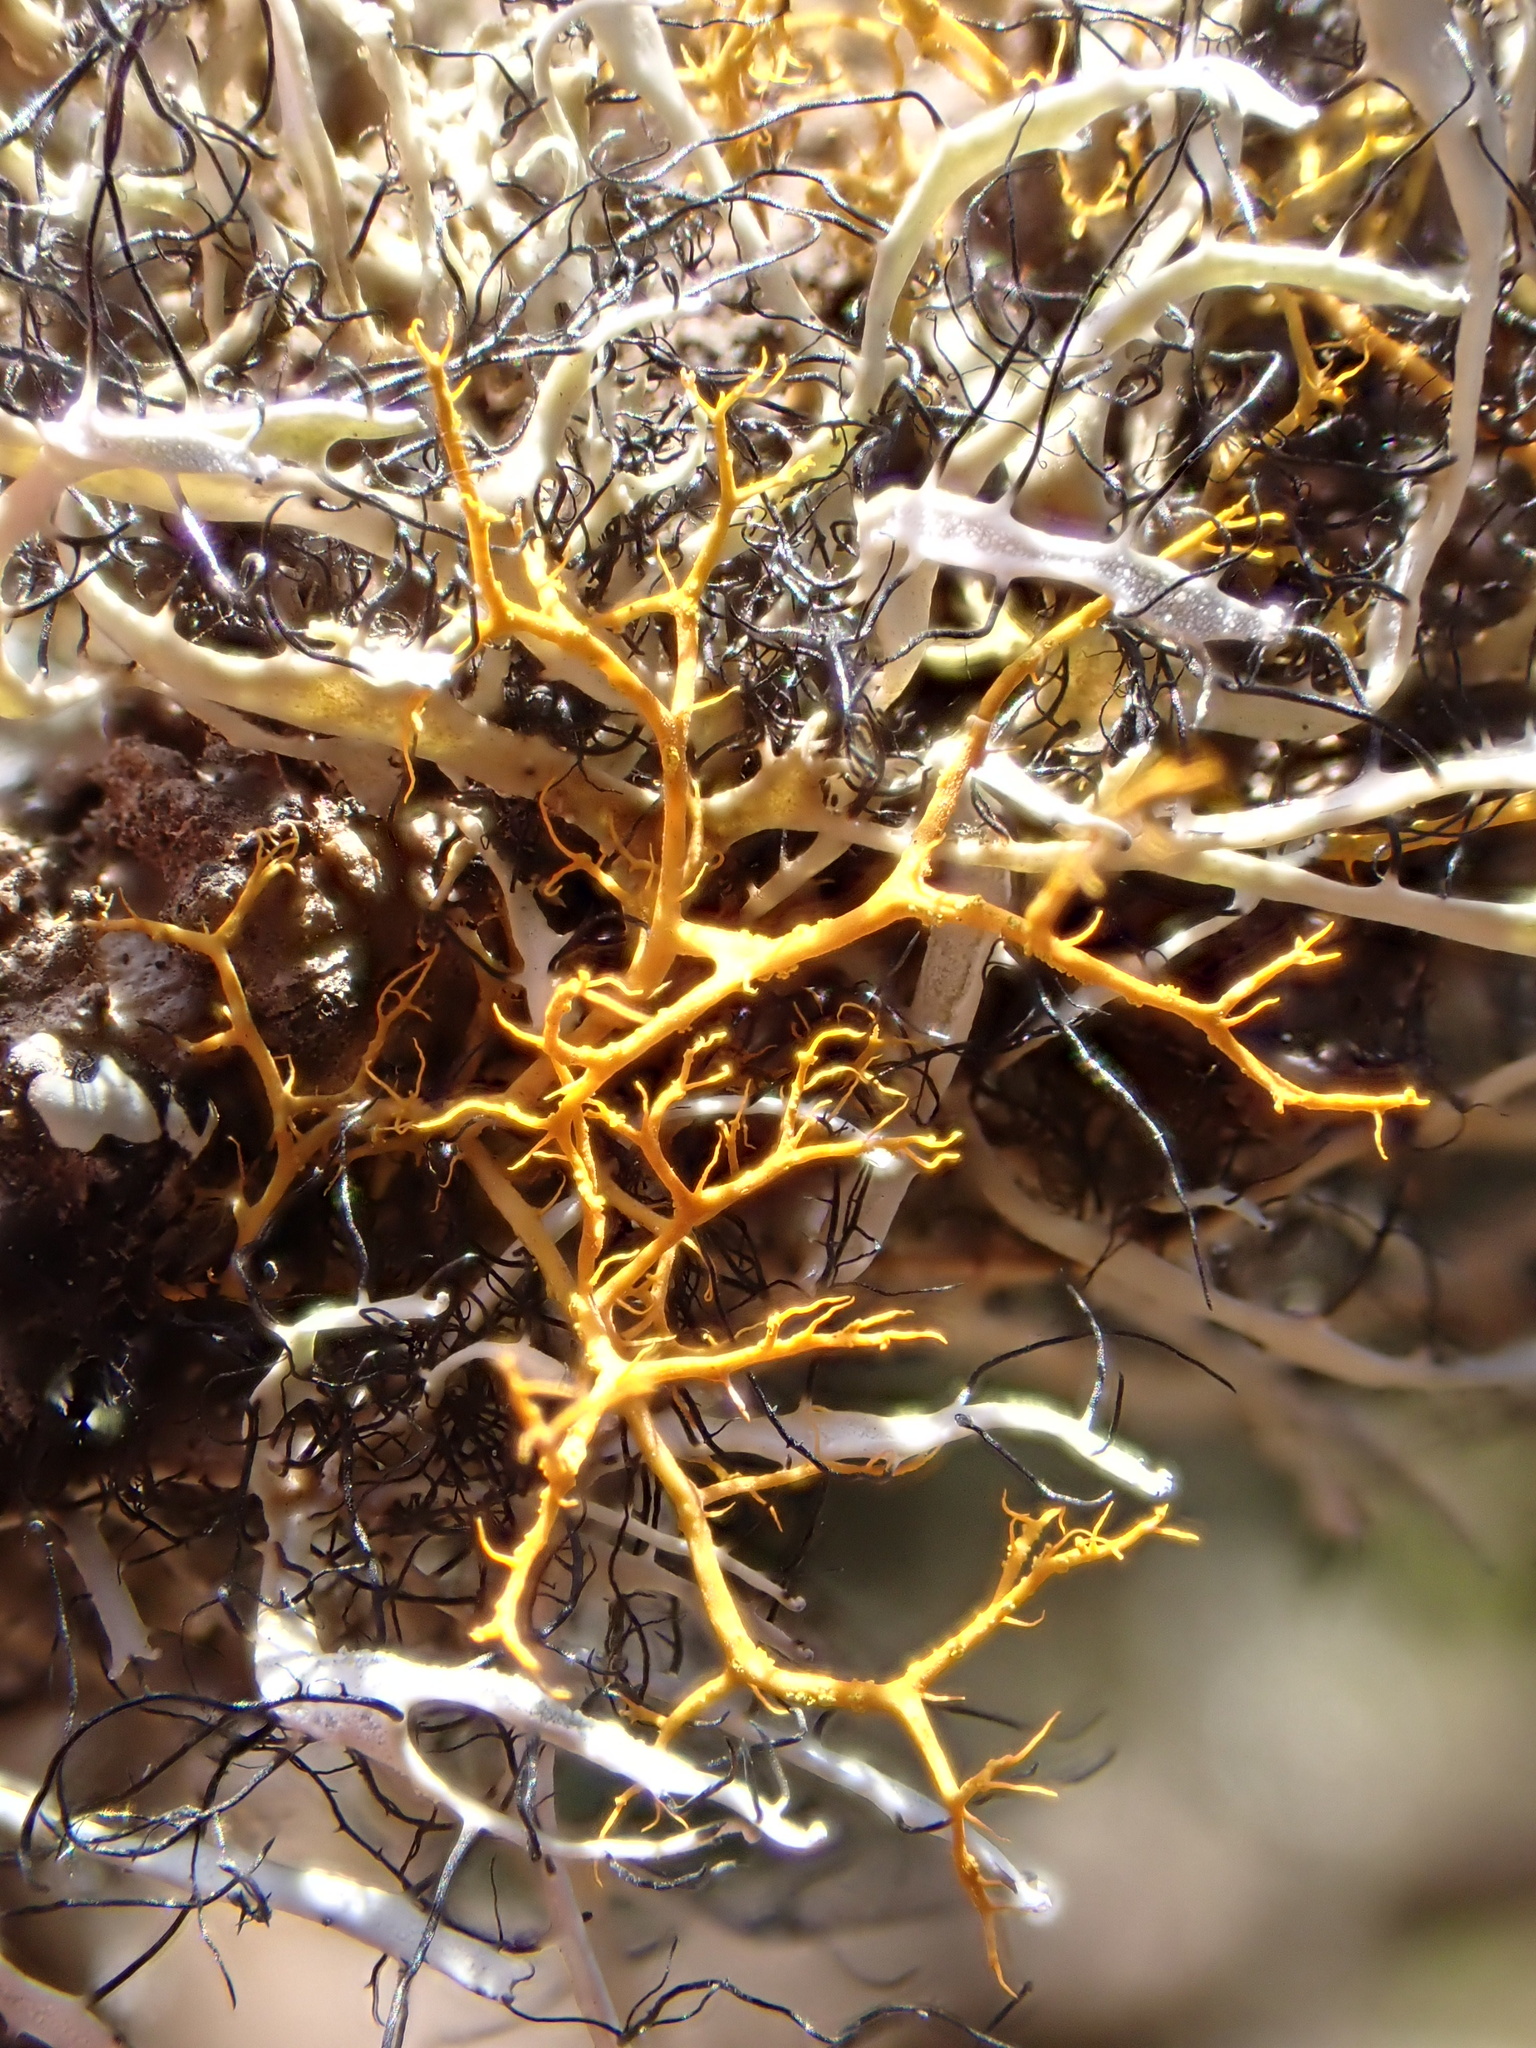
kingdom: Fungi
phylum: Ascomycota
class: Lecanoromycetes
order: Teloschistales
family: Teloschistaceae
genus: Teloschistes
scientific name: Teloschistes flavicans
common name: Golden hair-lichen
